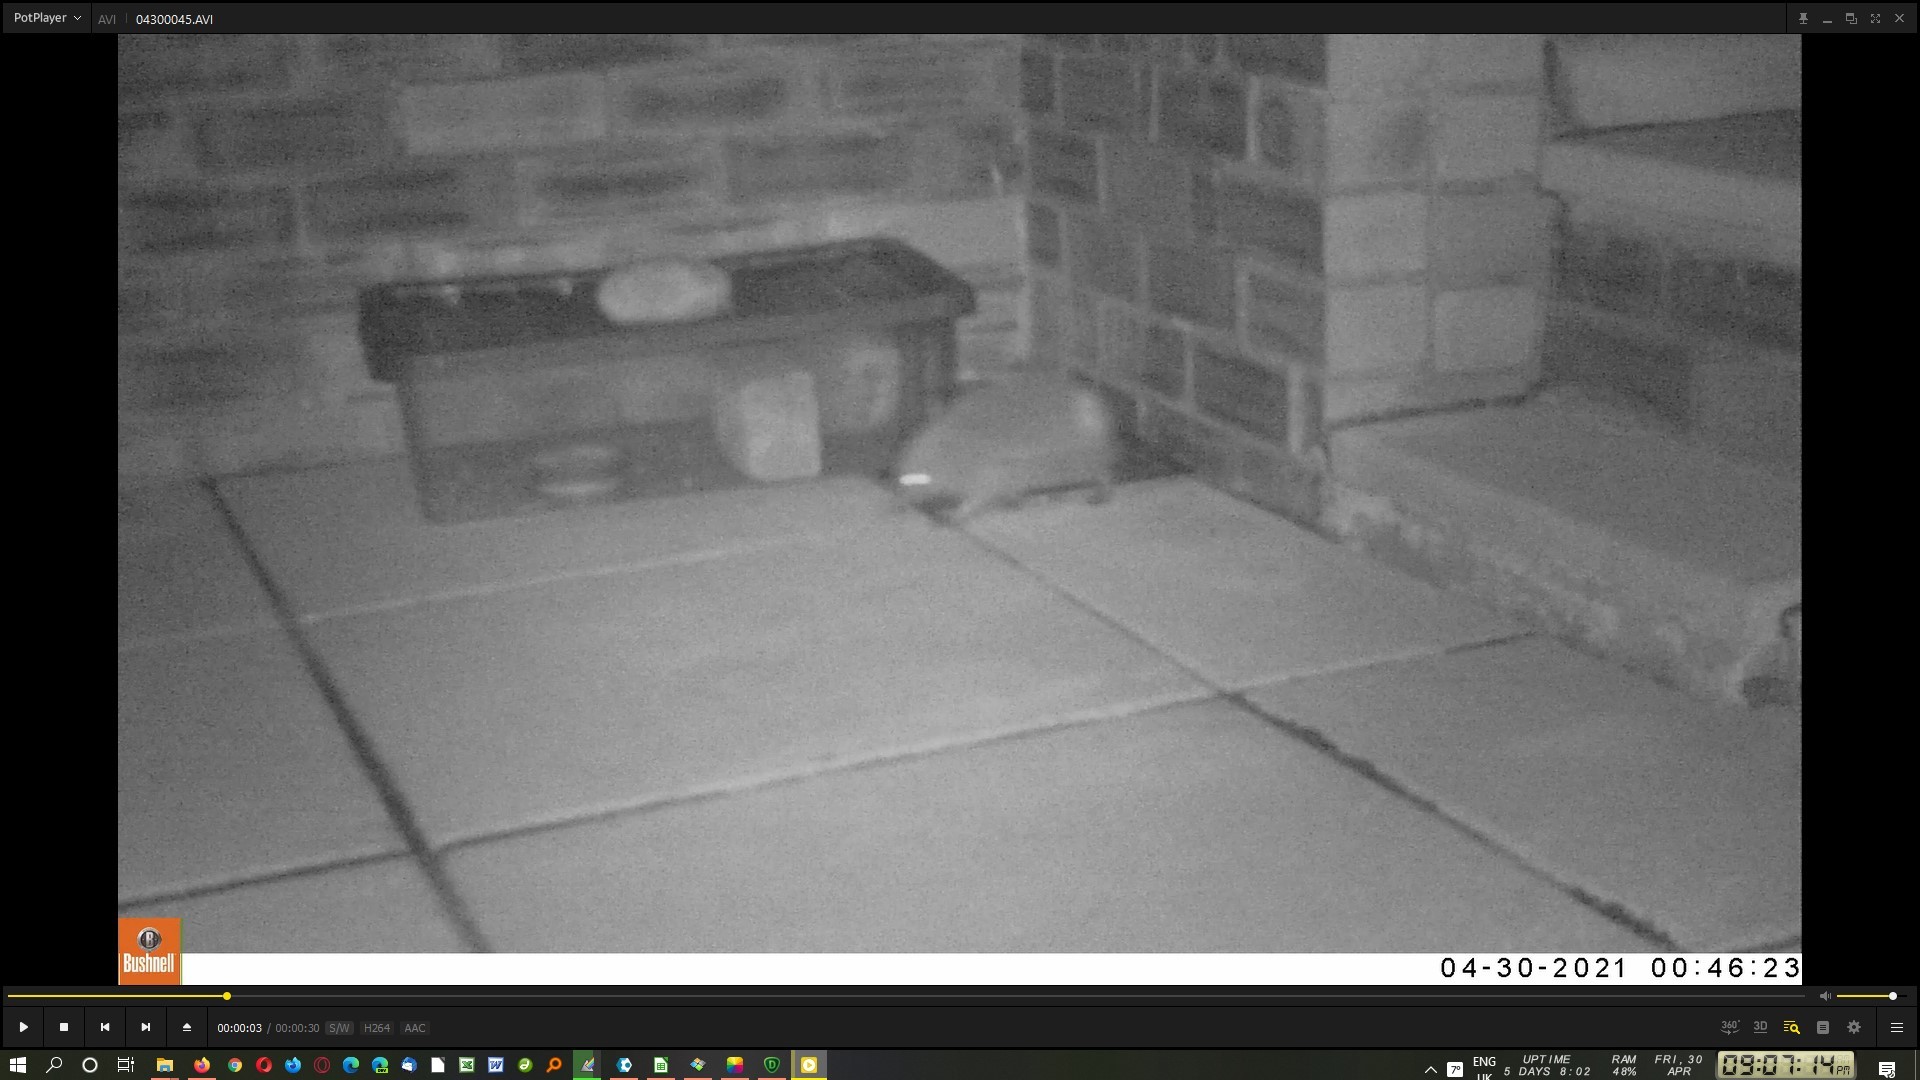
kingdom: Animalia
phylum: Chordata
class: Mammalia
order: Erinaceomorpha
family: Erinaceidae
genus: Erinaceus
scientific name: Erinaceus europaeus
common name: West european hedgehog
